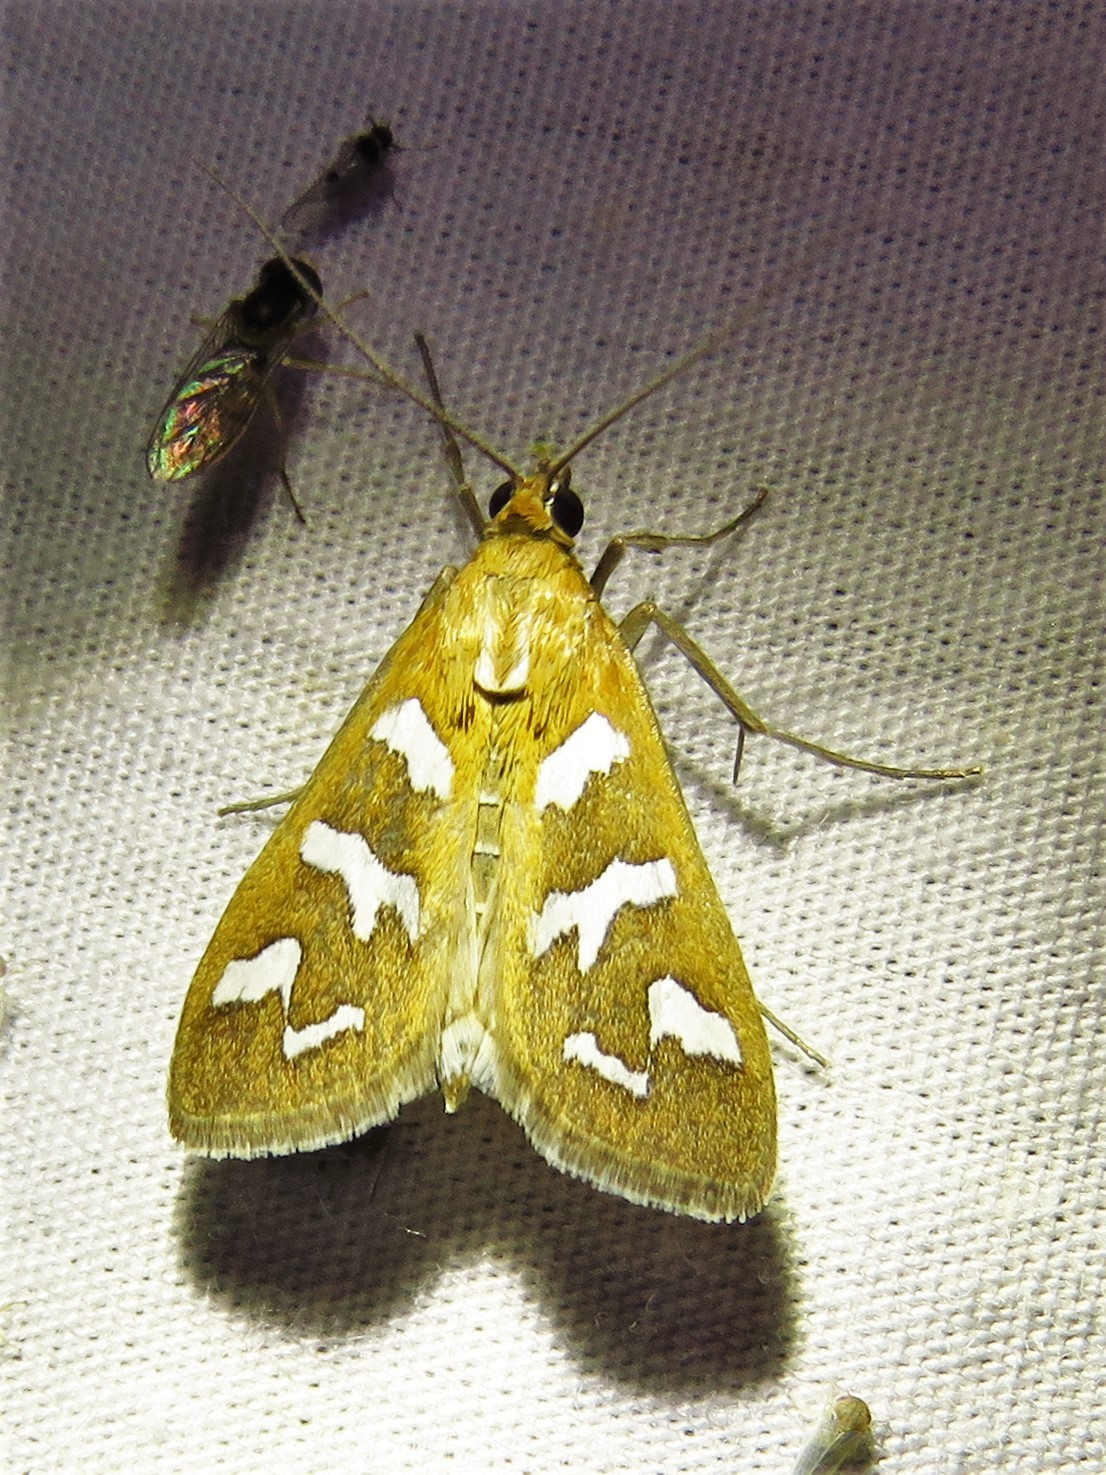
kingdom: Animalia
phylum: Arthropoda
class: Insecta
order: Lepidoptera
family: Crambidae
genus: Diastictis
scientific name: Diastictis fracturalis
